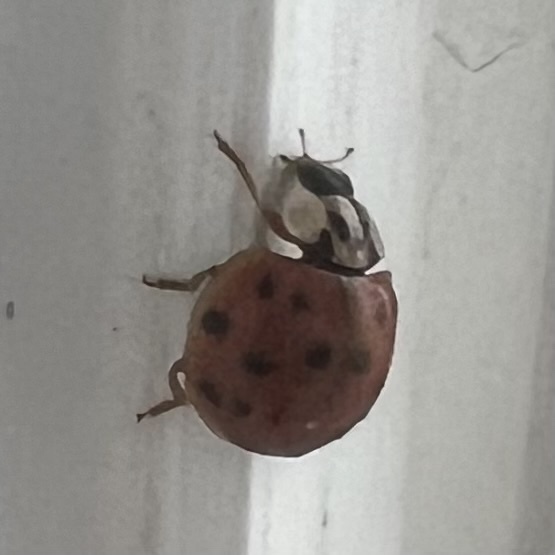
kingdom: Animalia
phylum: Arthropoda
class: Insecta
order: Coleoptera
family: Coccinellidae
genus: Harmonia
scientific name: Harmonia axyridis
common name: Harlequin ladybird
